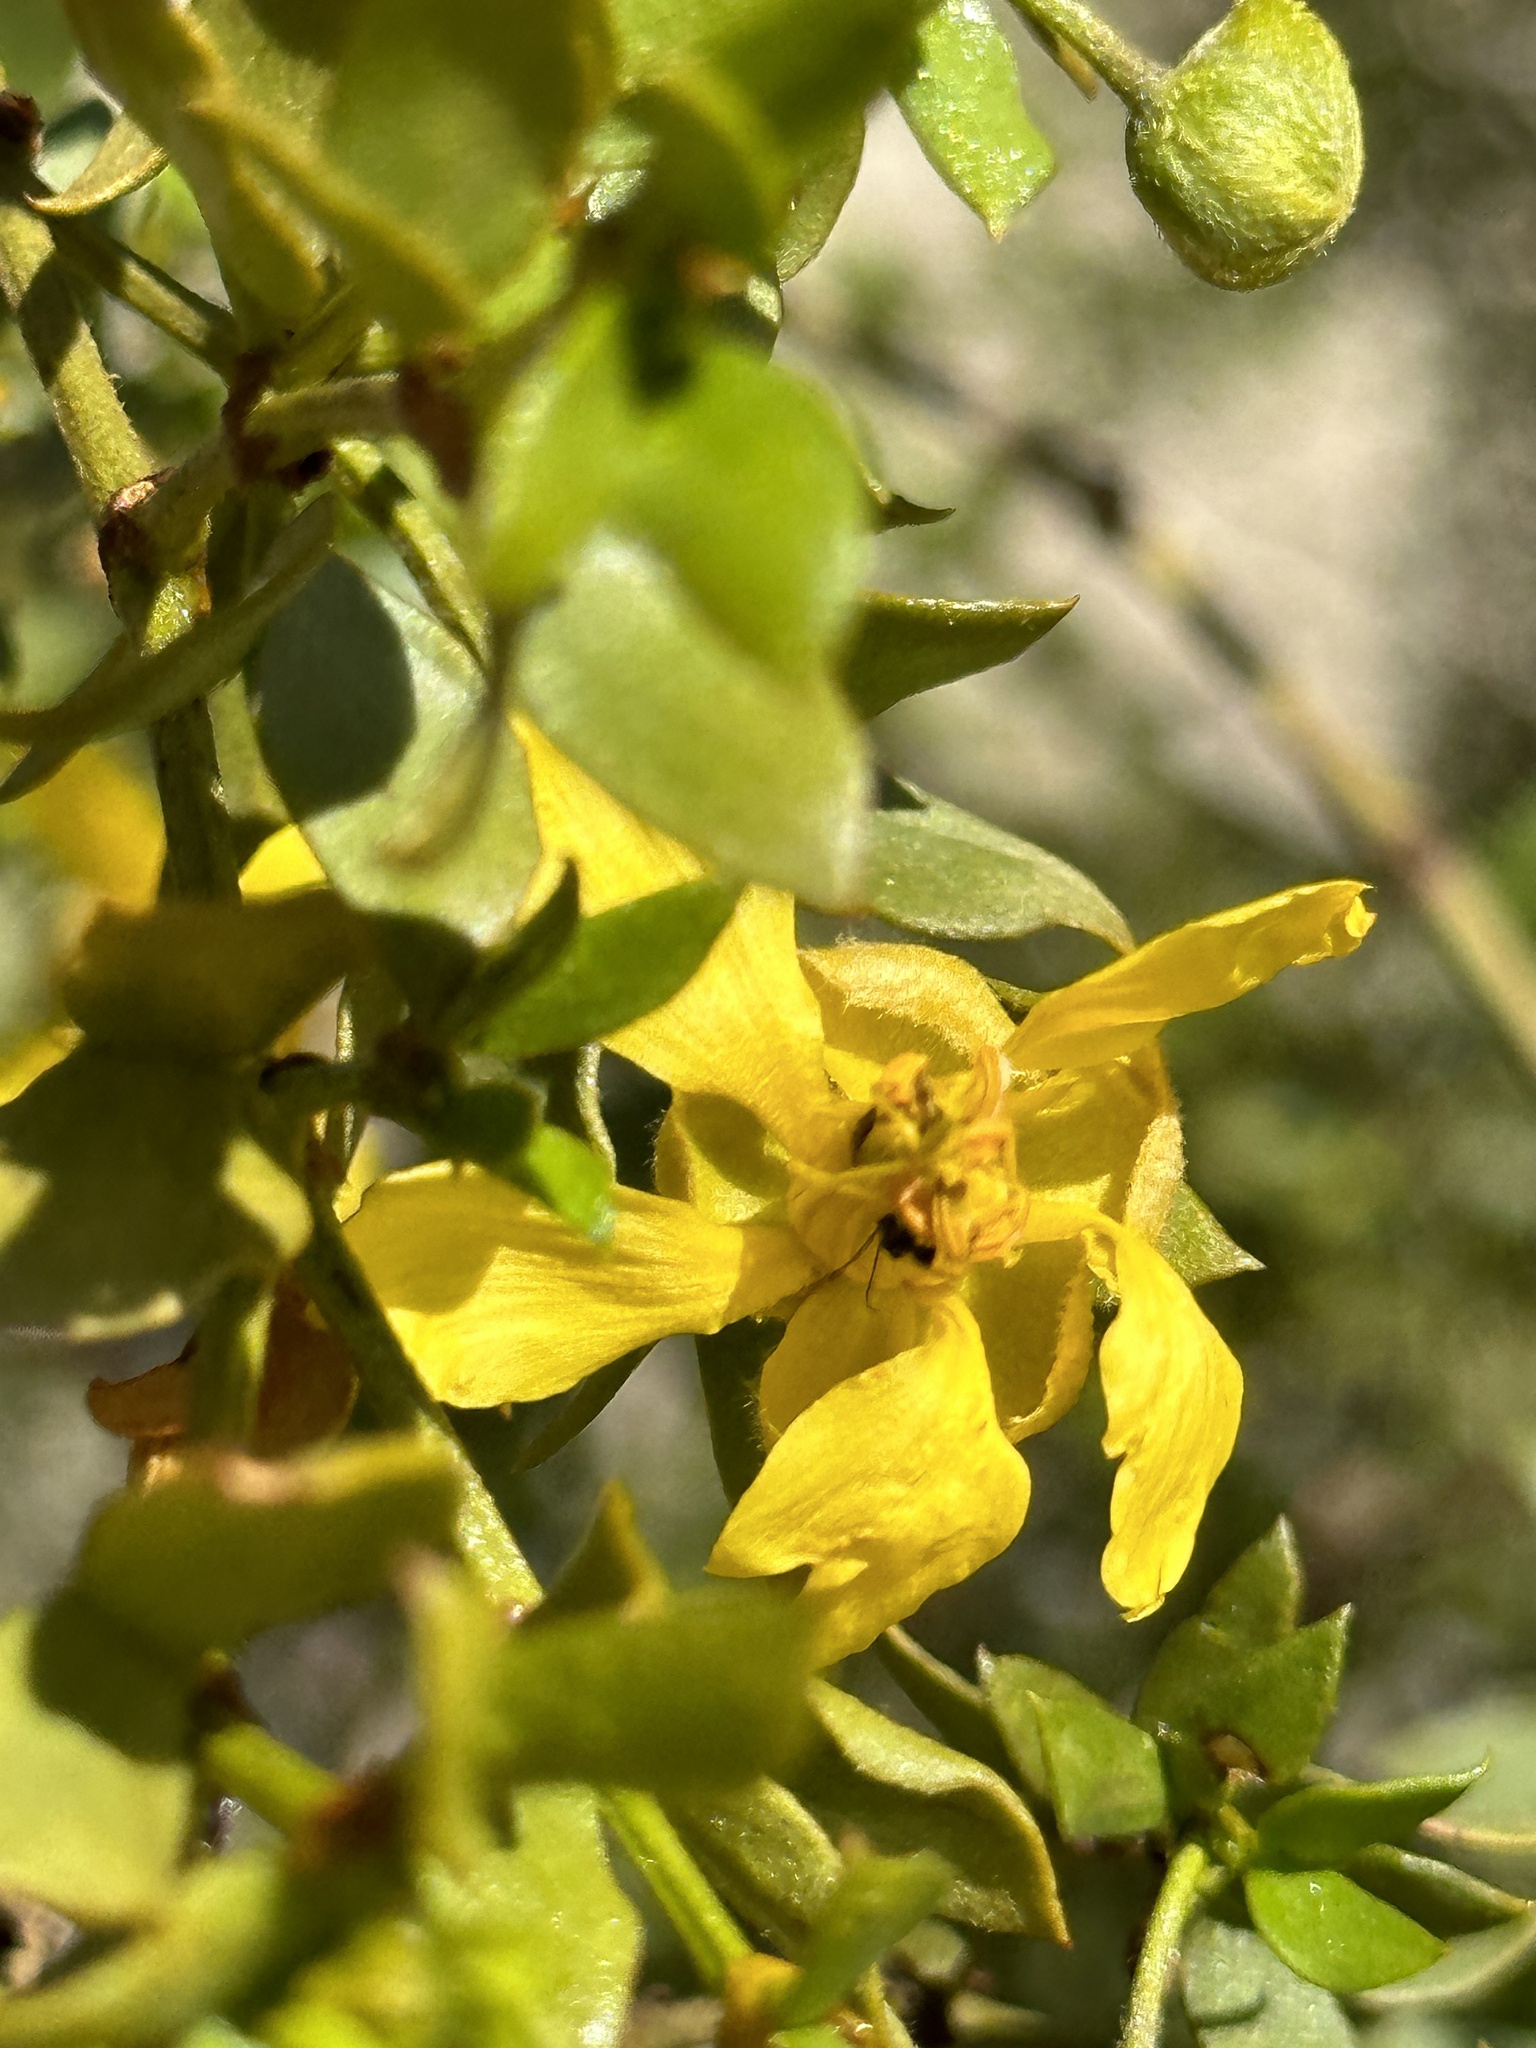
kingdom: Plantae
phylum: Tracheophyta
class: Magnoliopsida
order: Zygophyllales
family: Zygophyllaceae
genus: Larrea
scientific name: Larrea tridentata
